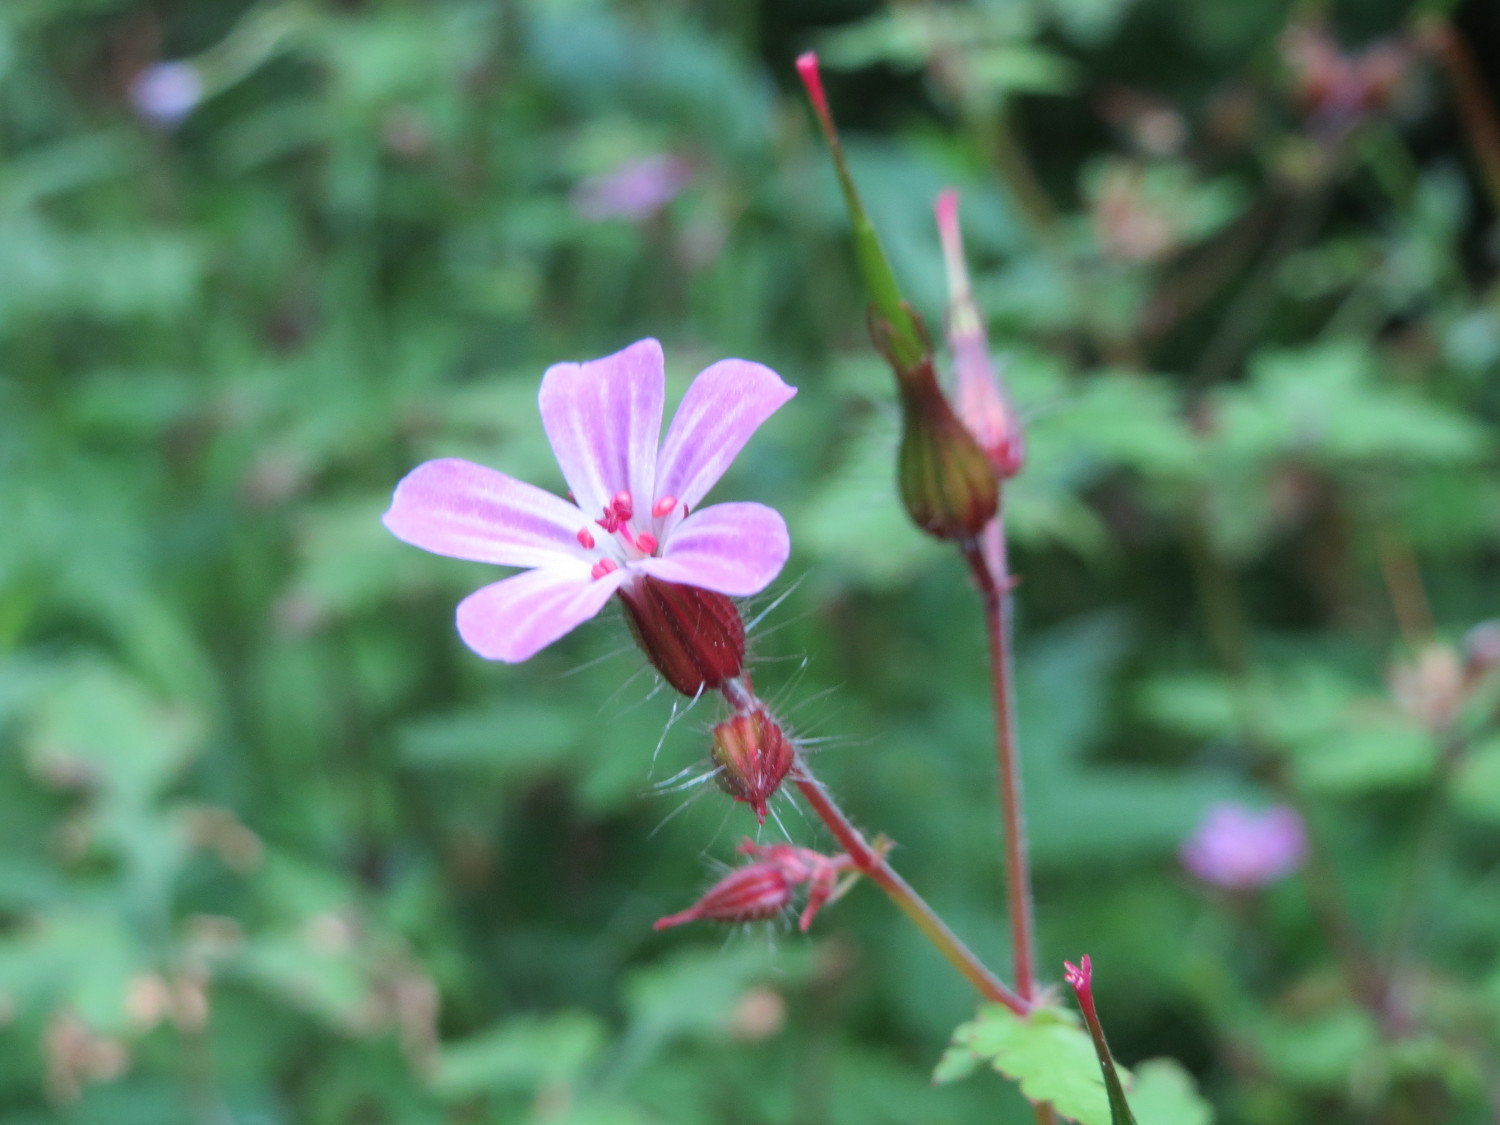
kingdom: Plantae
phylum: Tracheophyta
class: Magnoliopsida
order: Geraniales
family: Geraniaceae
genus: Geranium
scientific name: Geranium robertianum
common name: Herb-robert
